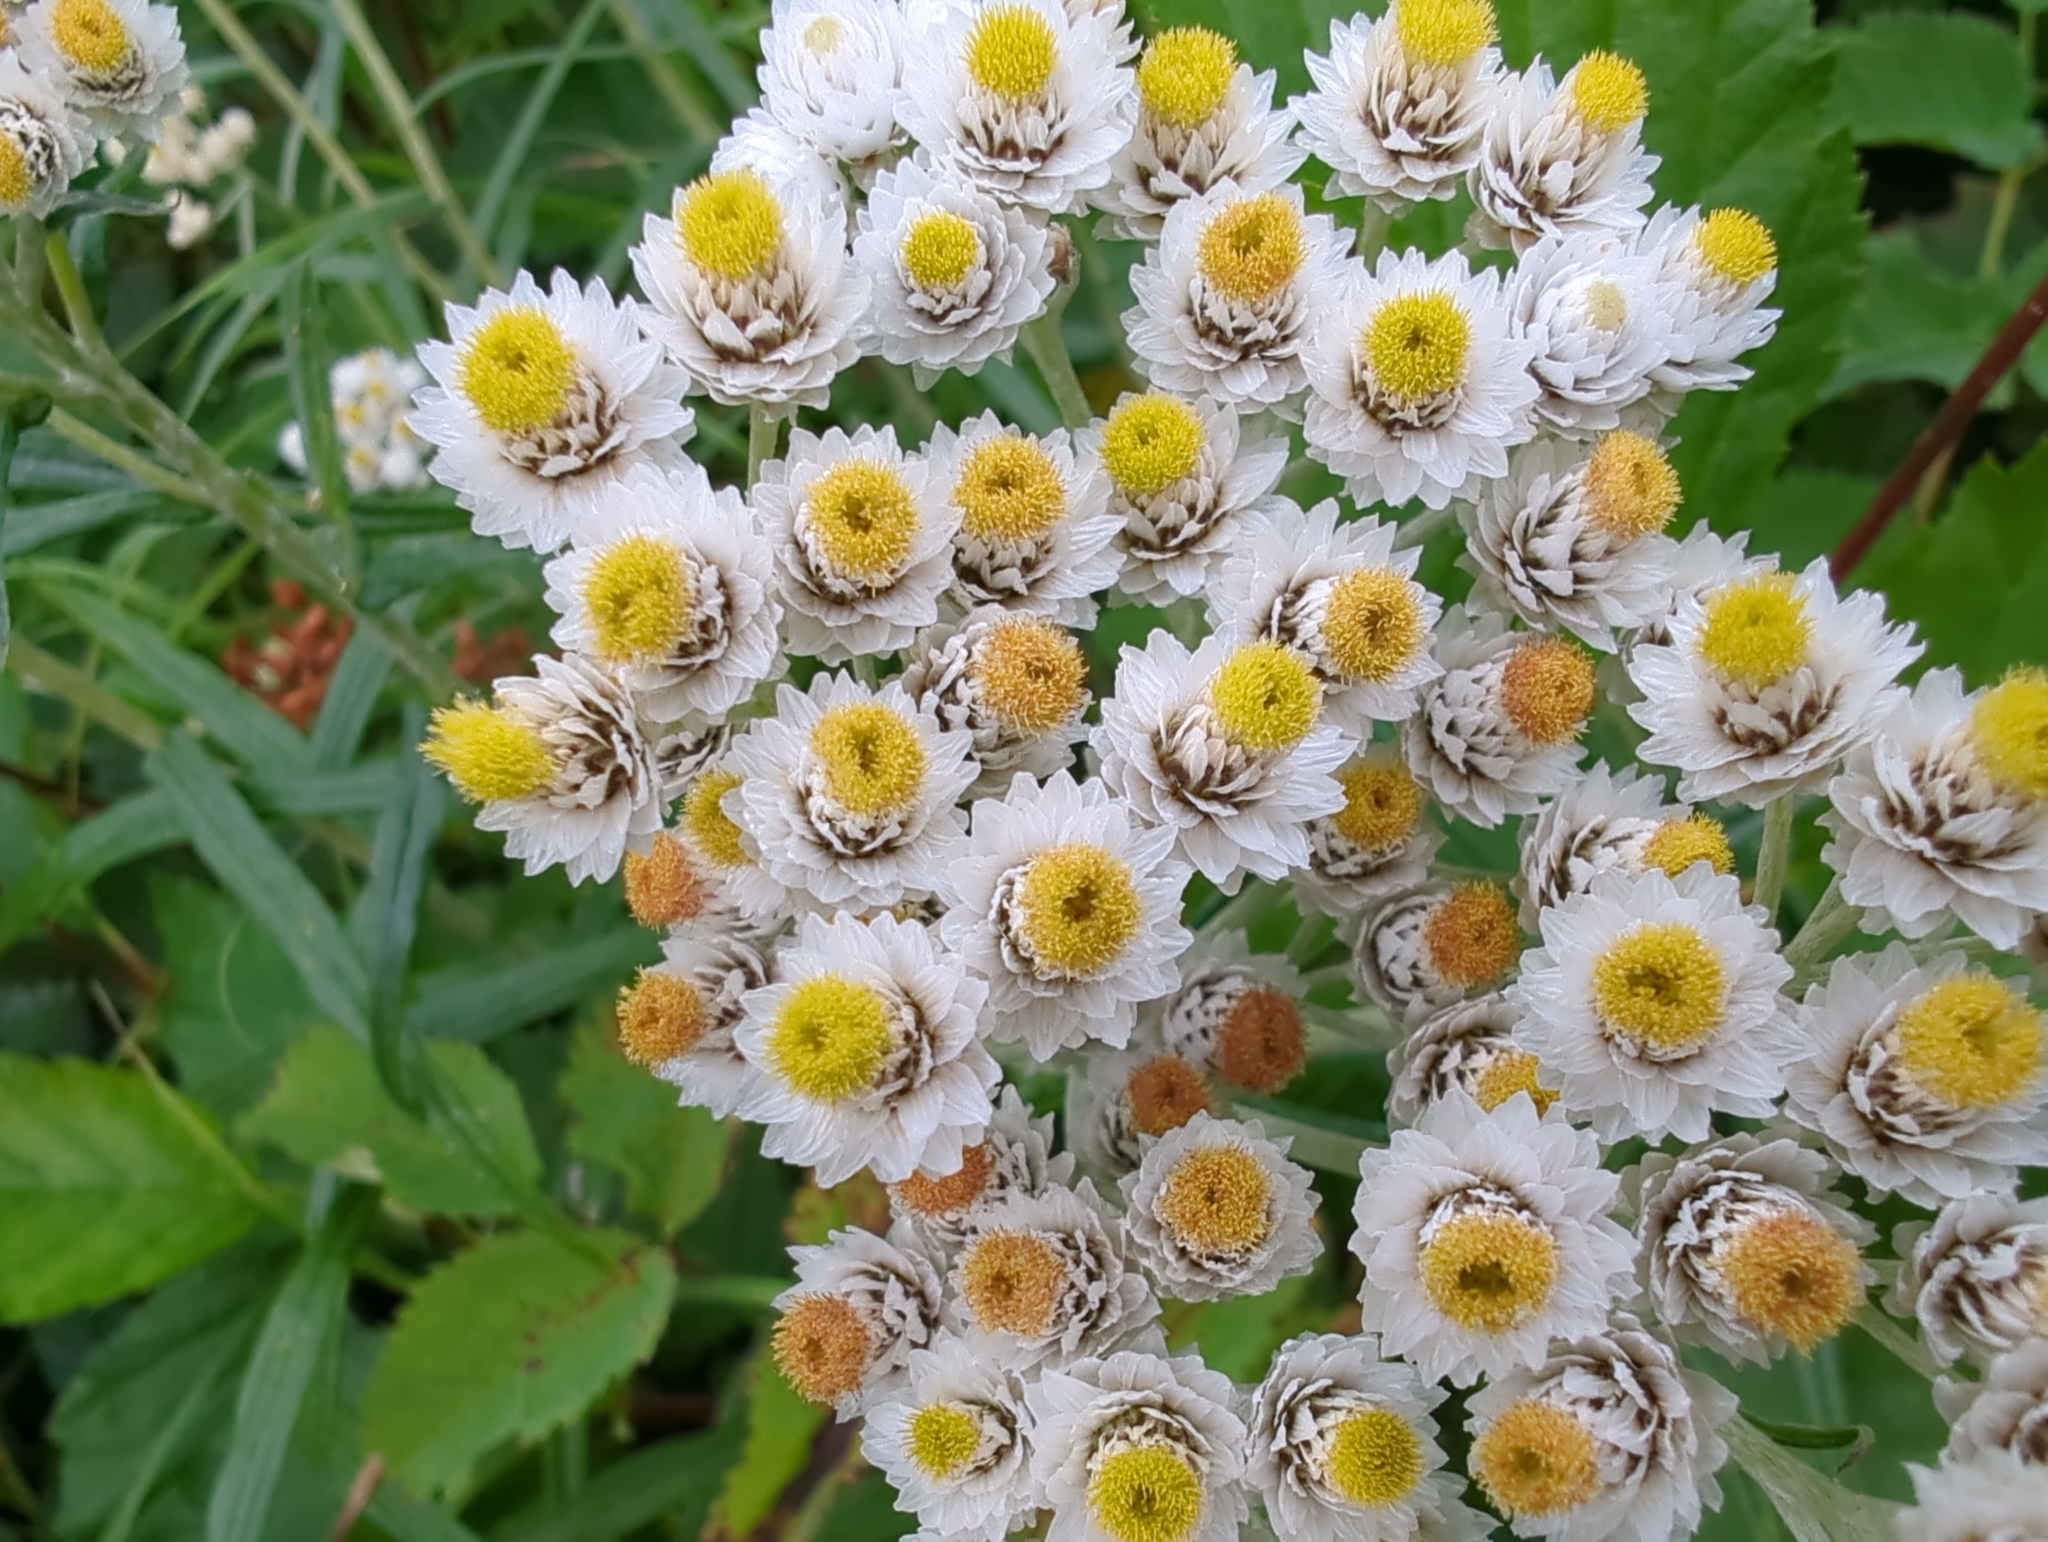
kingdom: Plantae
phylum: Tracheophyta
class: Magnoliopsida
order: Asterales
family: Asteraceae
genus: Anaphalis
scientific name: Anaphalis margaritacea
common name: Pearly everlasting
